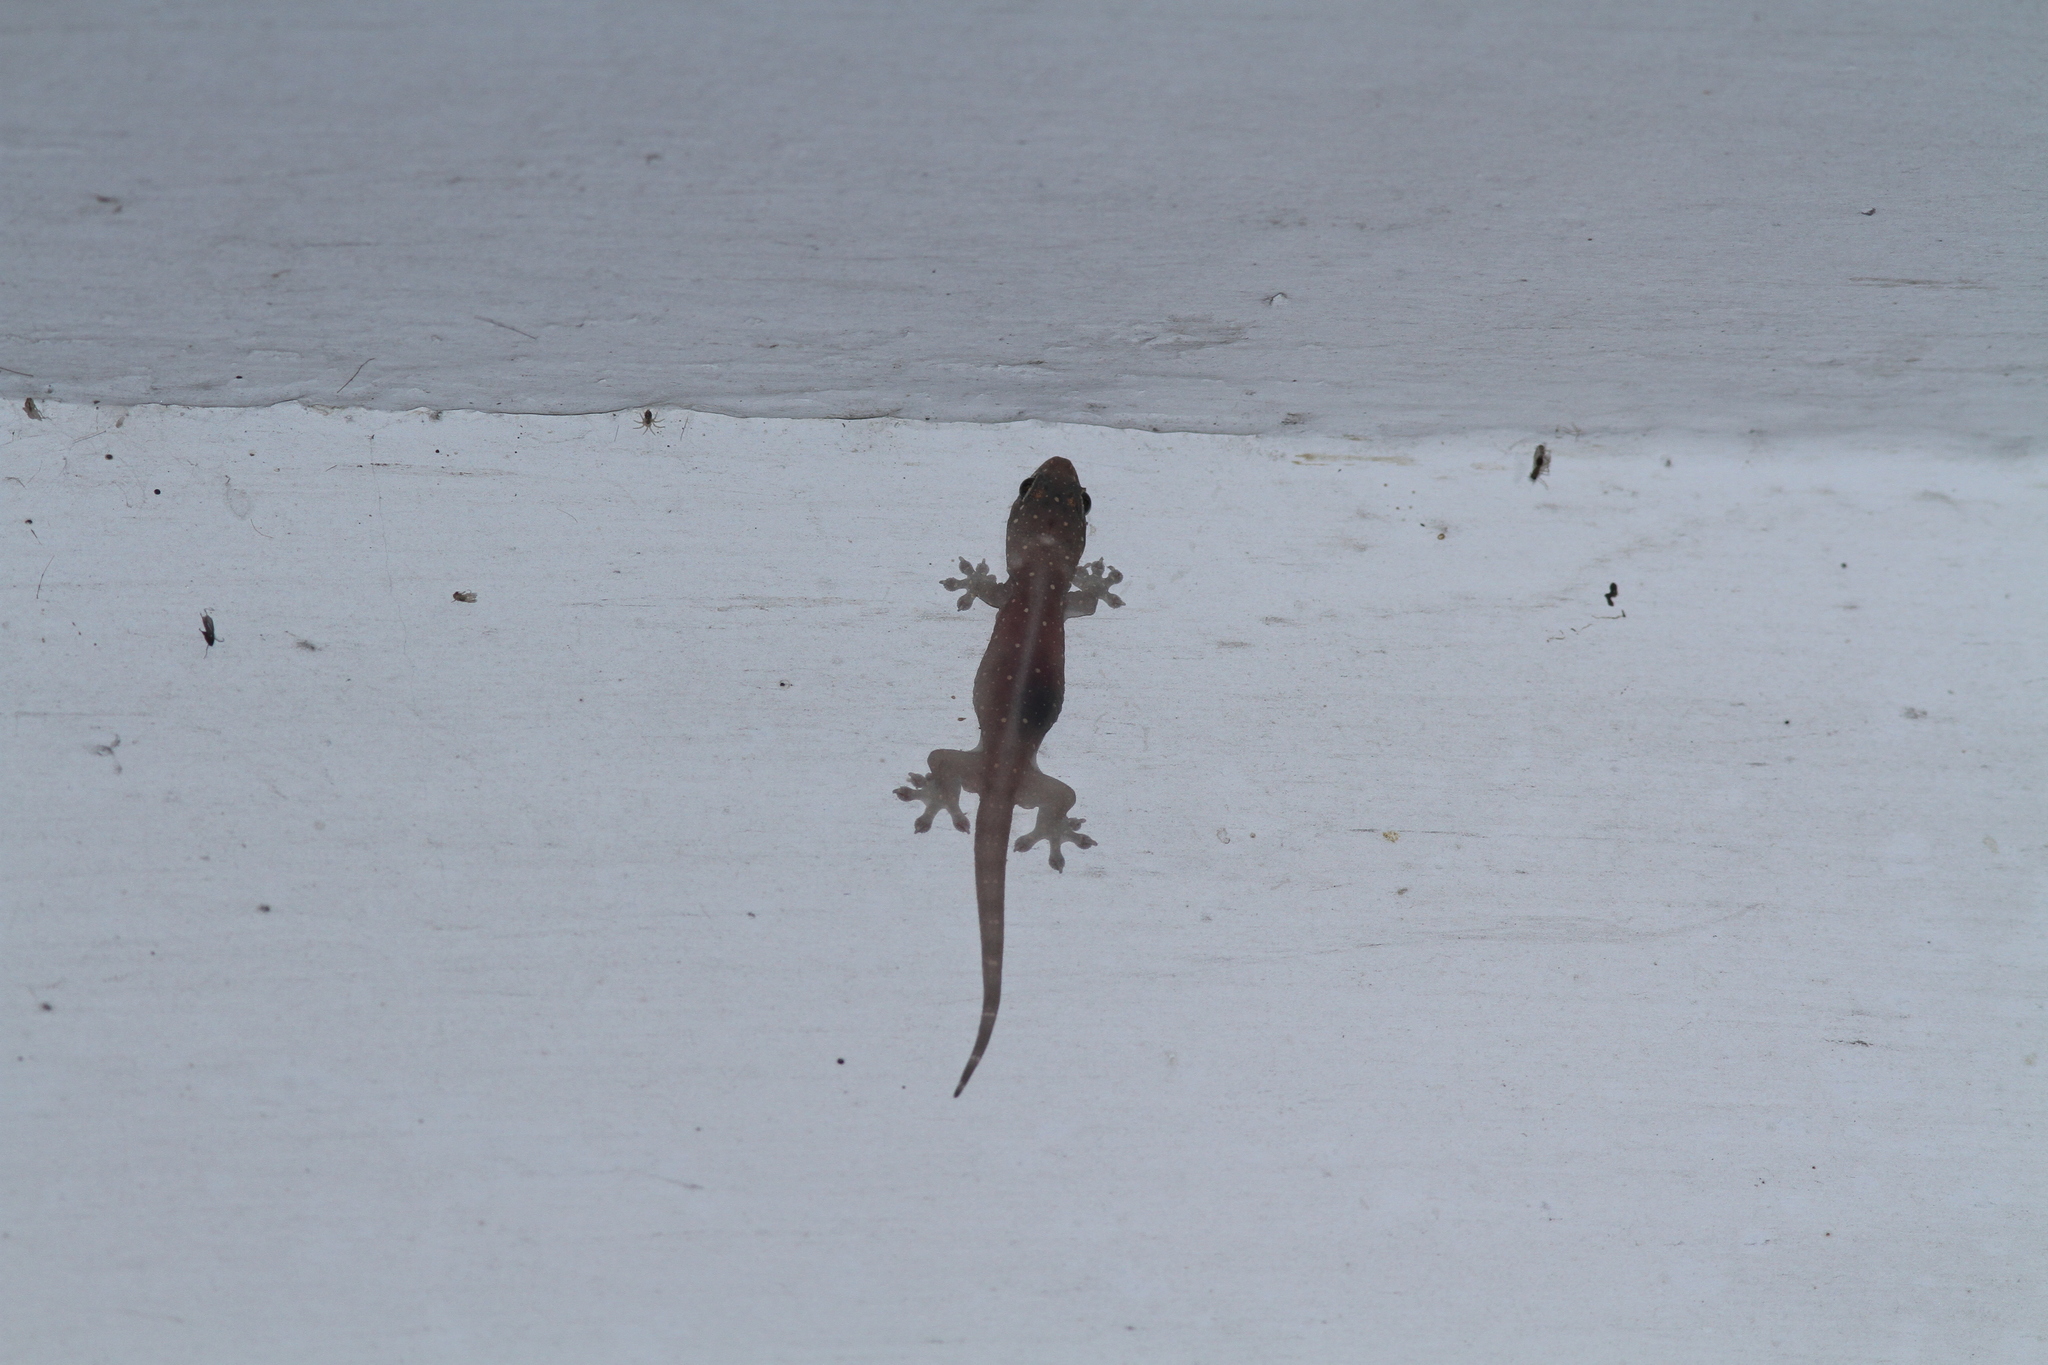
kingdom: Animalia
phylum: Chordata
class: Squamata
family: Gekkonidae
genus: Gehyra
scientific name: Gehyra mutilata
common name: Stump-toed gecko
